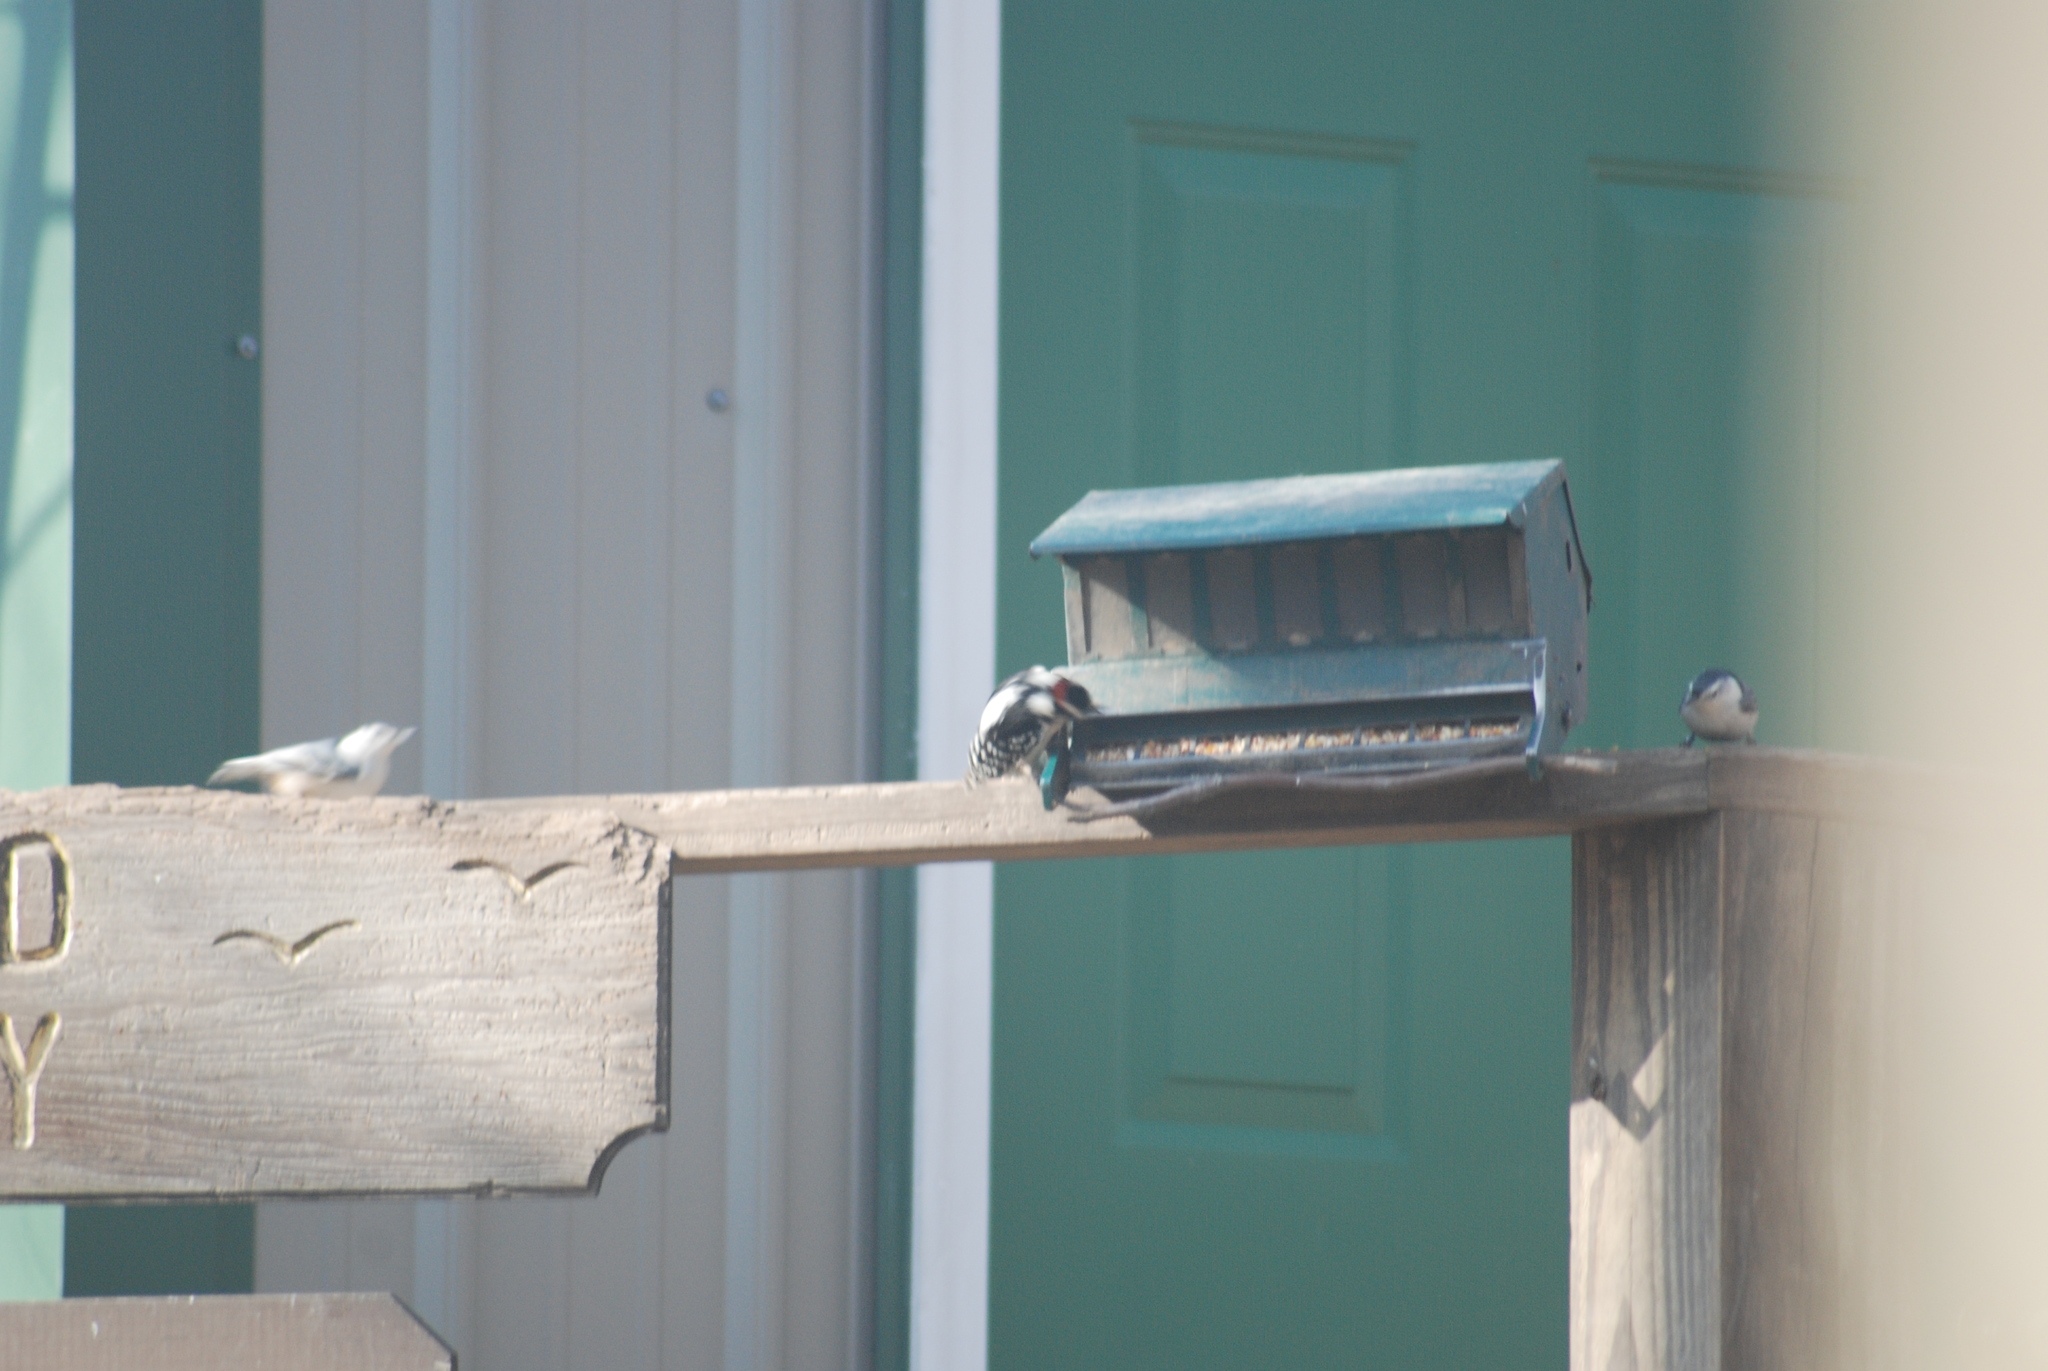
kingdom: Animalia
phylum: Chordata
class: Aves
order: Passeriformes
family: Sittidae
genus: Sitta
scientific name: Sitta carolinensis
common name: White-breasted nuthatch
